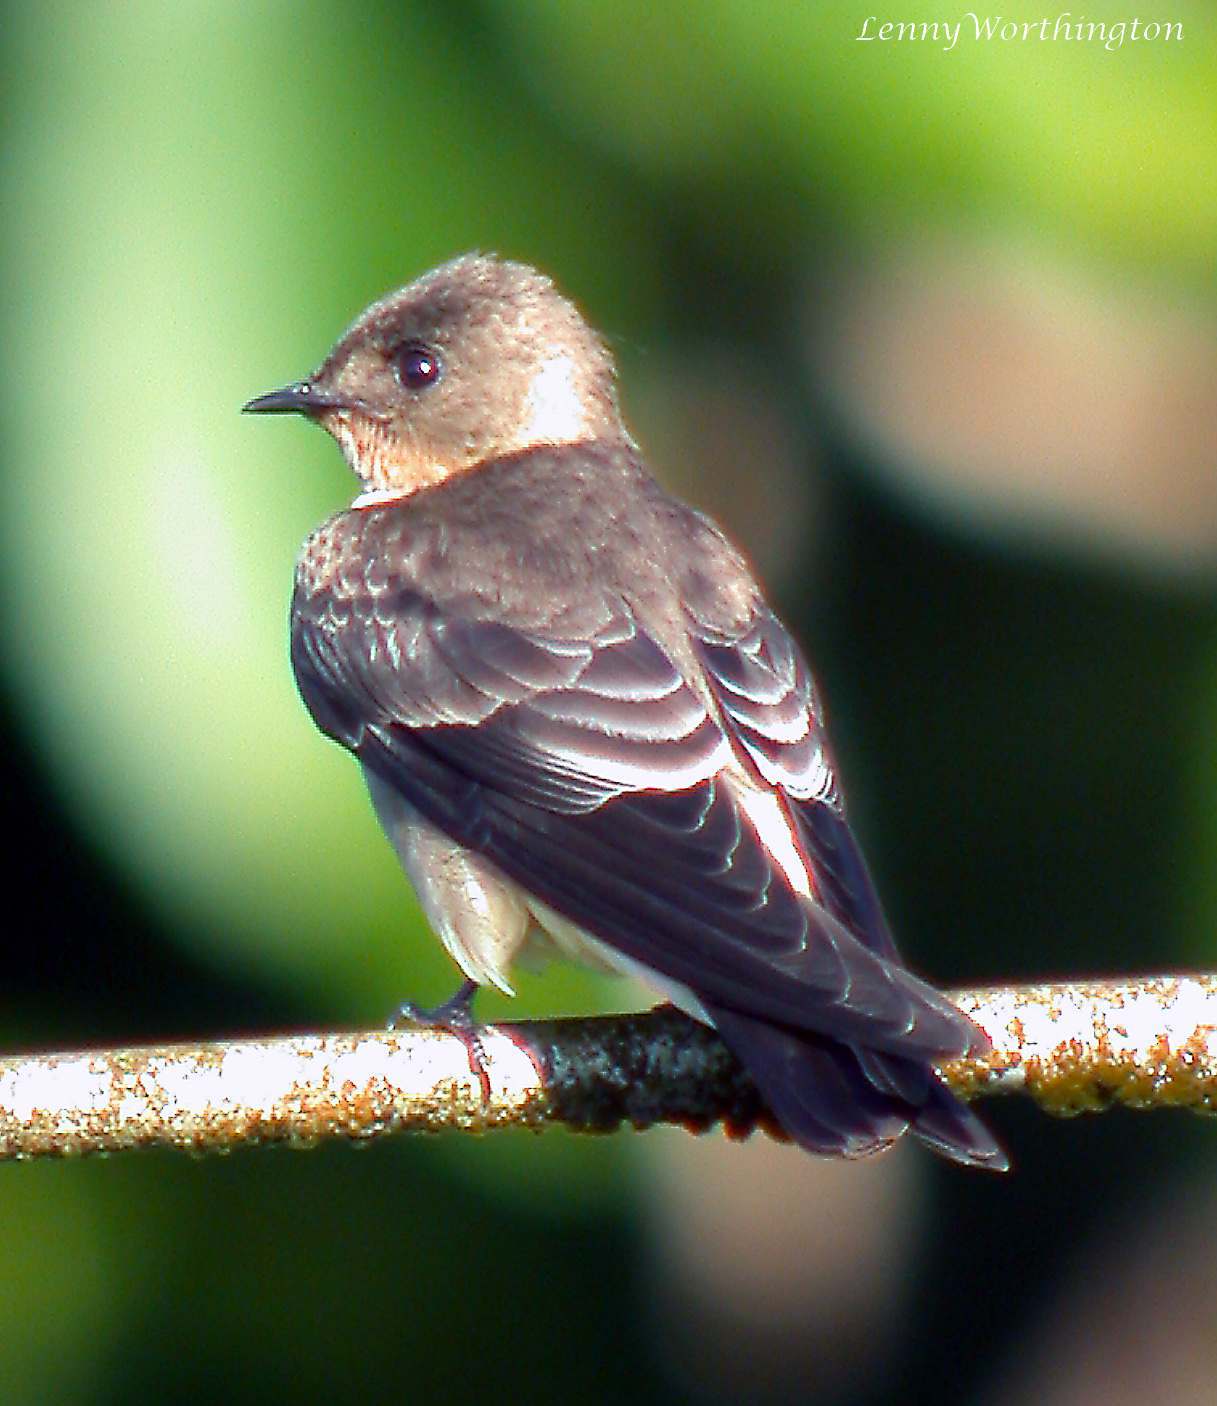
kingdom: Animalia
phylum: Chordata
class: Aves
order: Passeriformes
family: Hirundinidae
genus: Stelgidopteryx
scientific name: Stelgidopteryx ruficollis
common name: Southern rough-winged swallow
